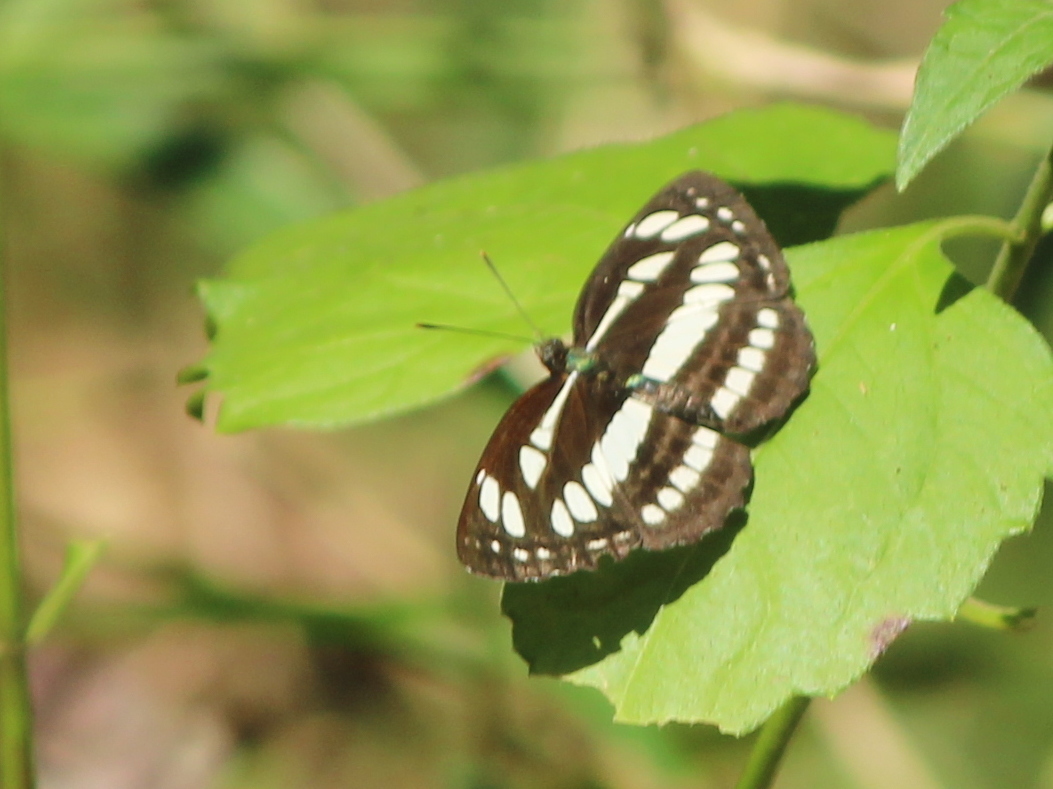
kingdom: Animalia
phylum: Arthropoda
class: Insecta
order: Lepidoptera
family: Nymphalidae
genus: Neptis
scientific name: Neptis hylas
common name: Common sailer
